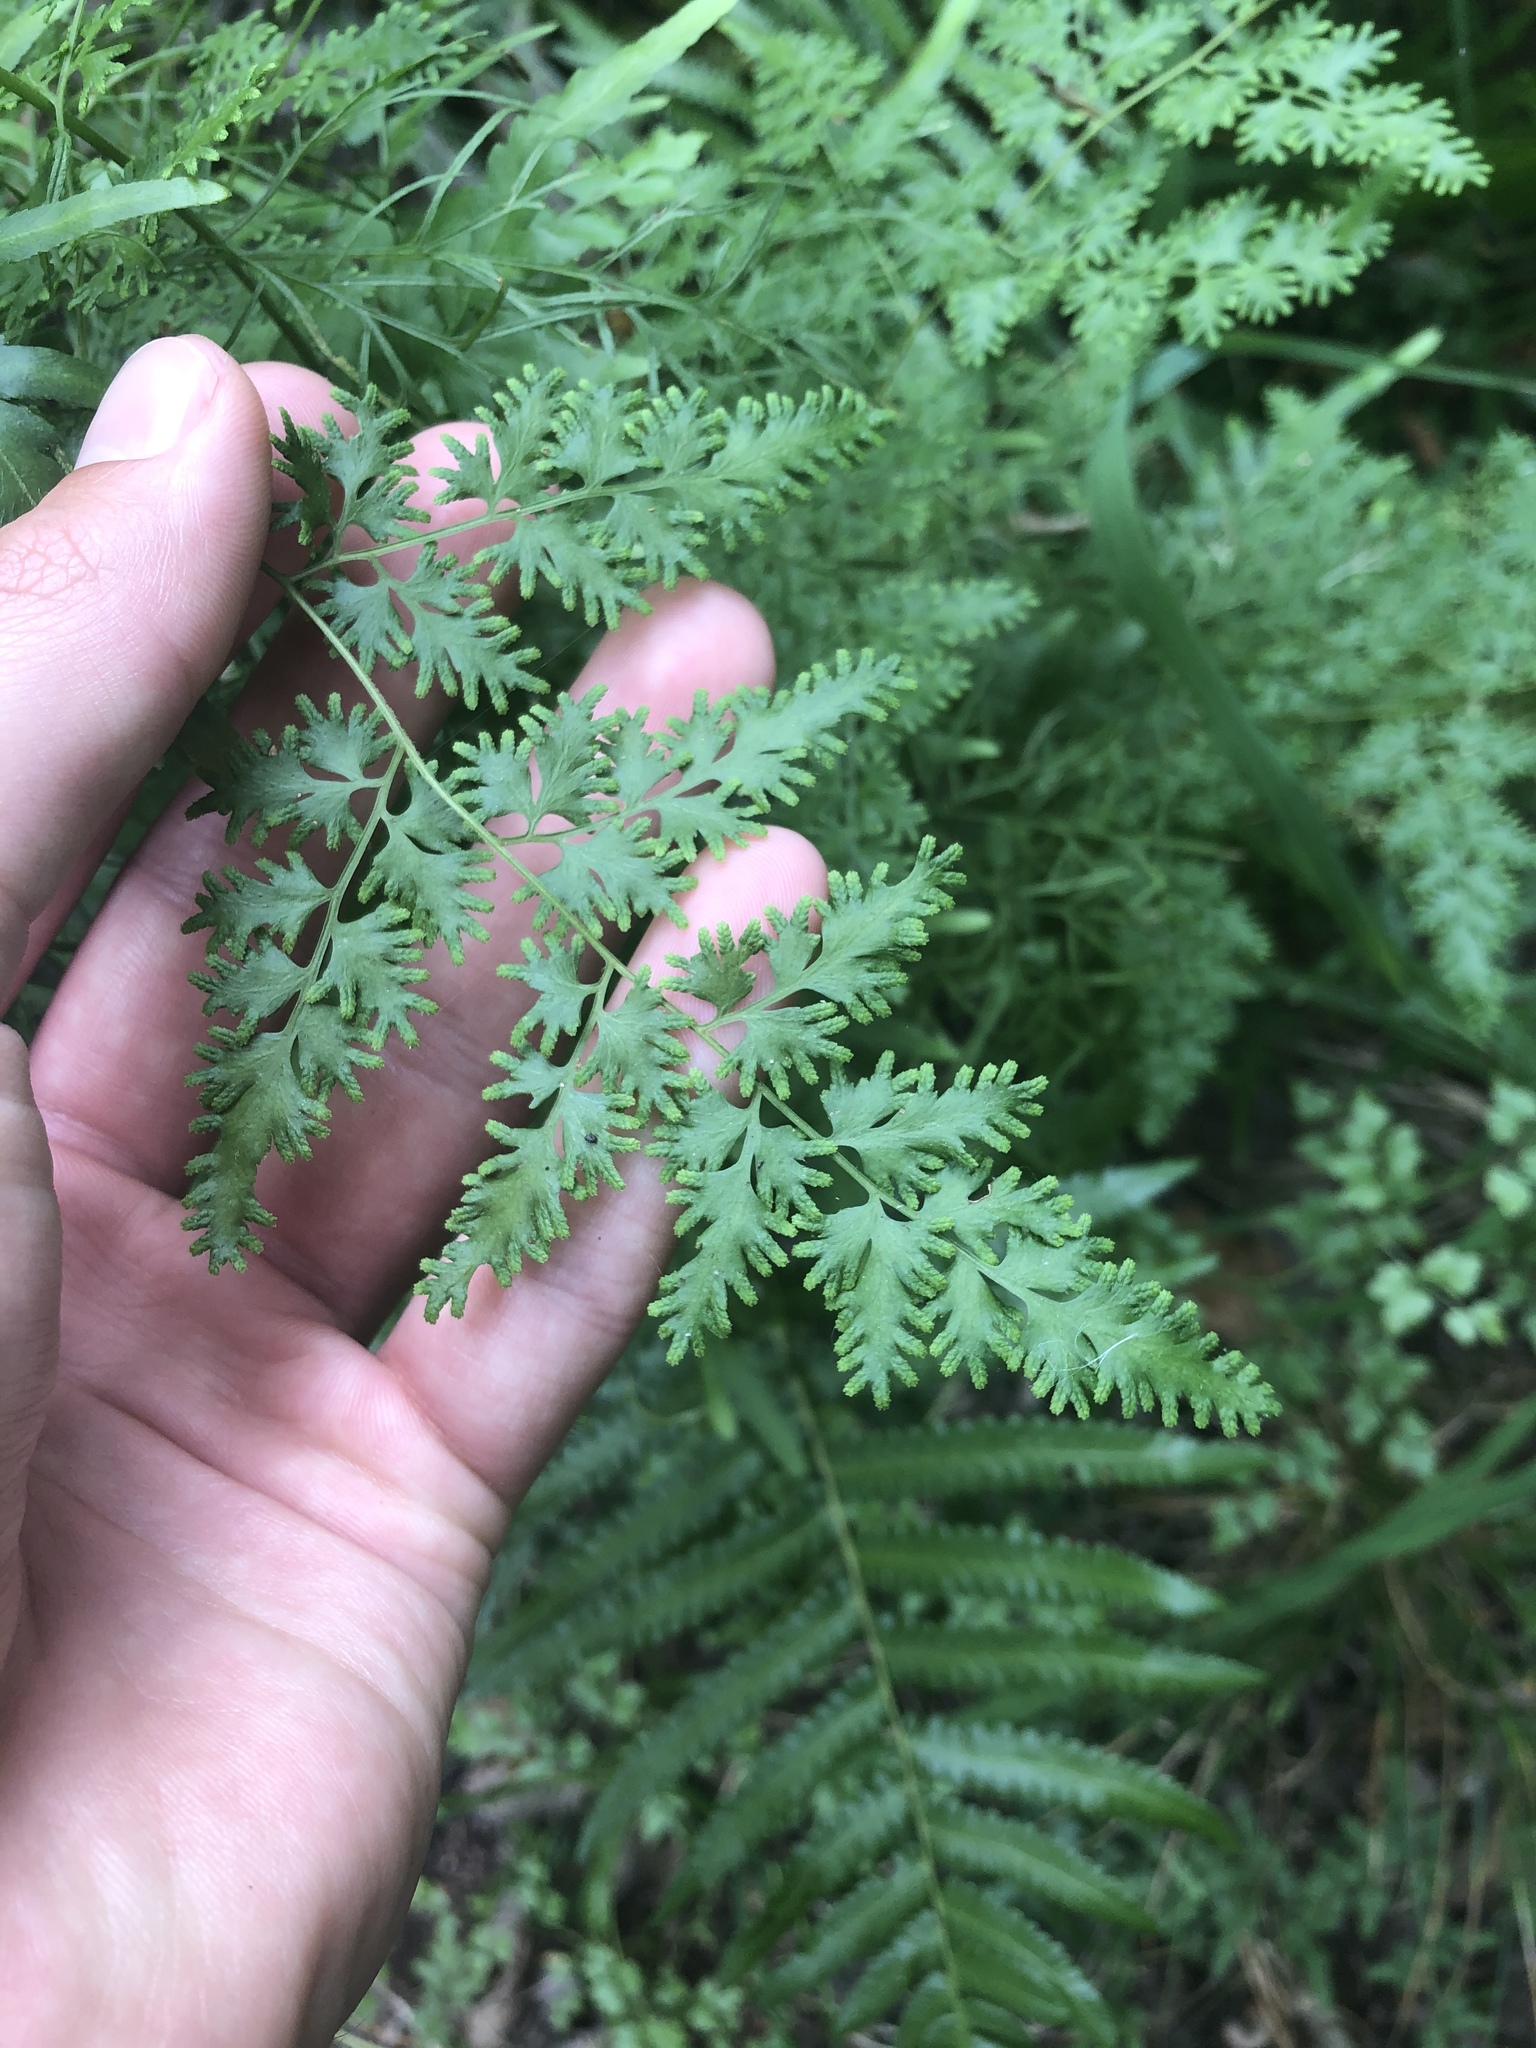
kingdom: Plantae
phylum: Tracheophyta
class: Polypodiopsida
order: Schizaeales
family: Lygodiaceae
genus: Lygodium
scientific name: Lygodium japonicum
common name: Japanese climbing fern
